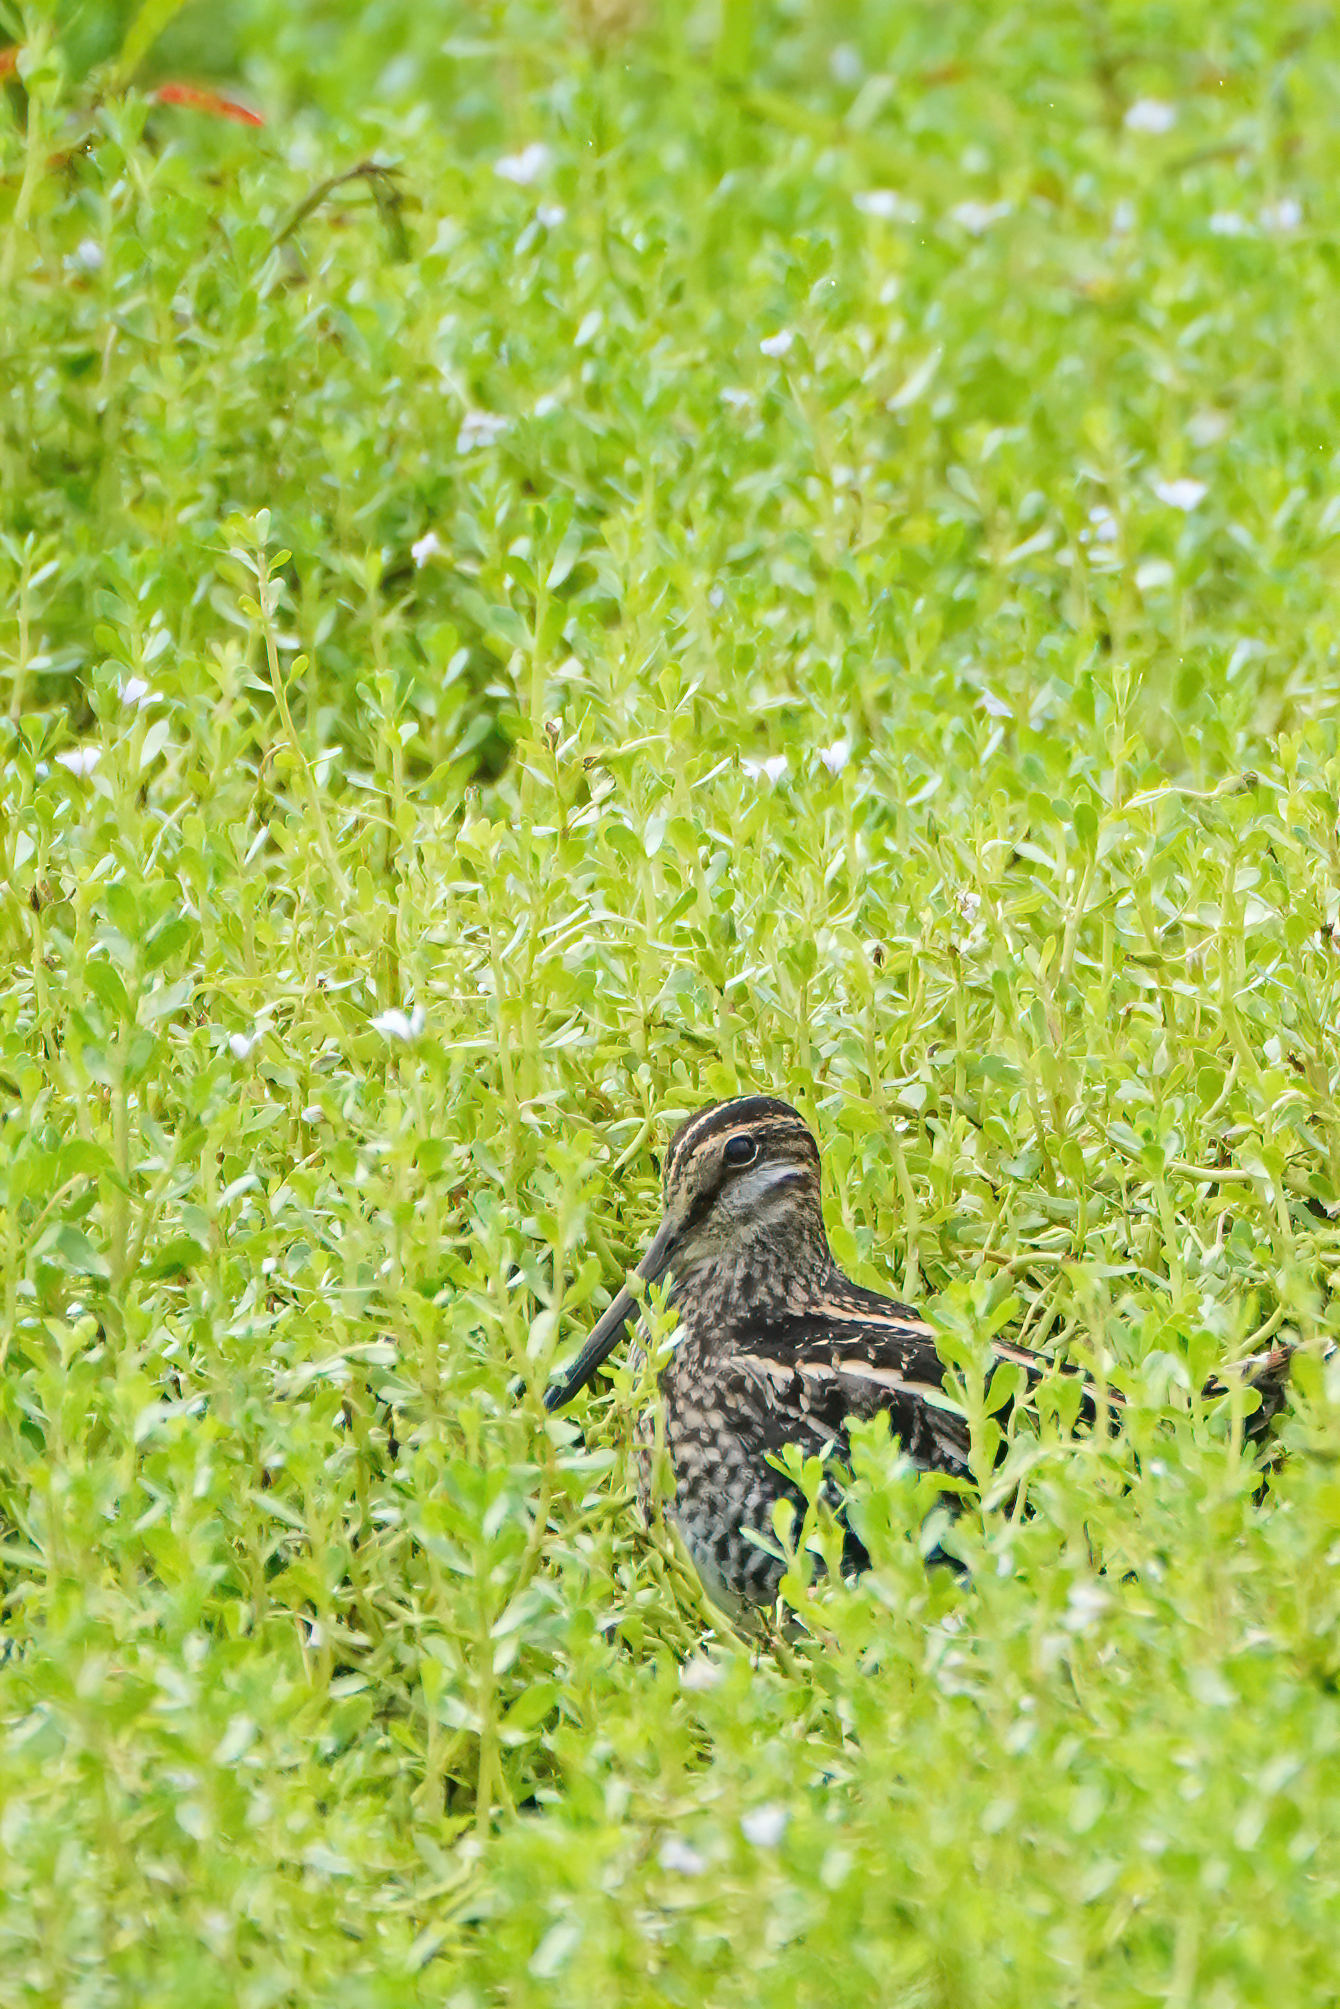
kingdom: Animalia
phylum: Chordata
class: Aves
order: Charadriiformes
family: Scolopacidae
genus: Gallinago
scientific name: Gallinago delicata
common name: Wilson's snipe
